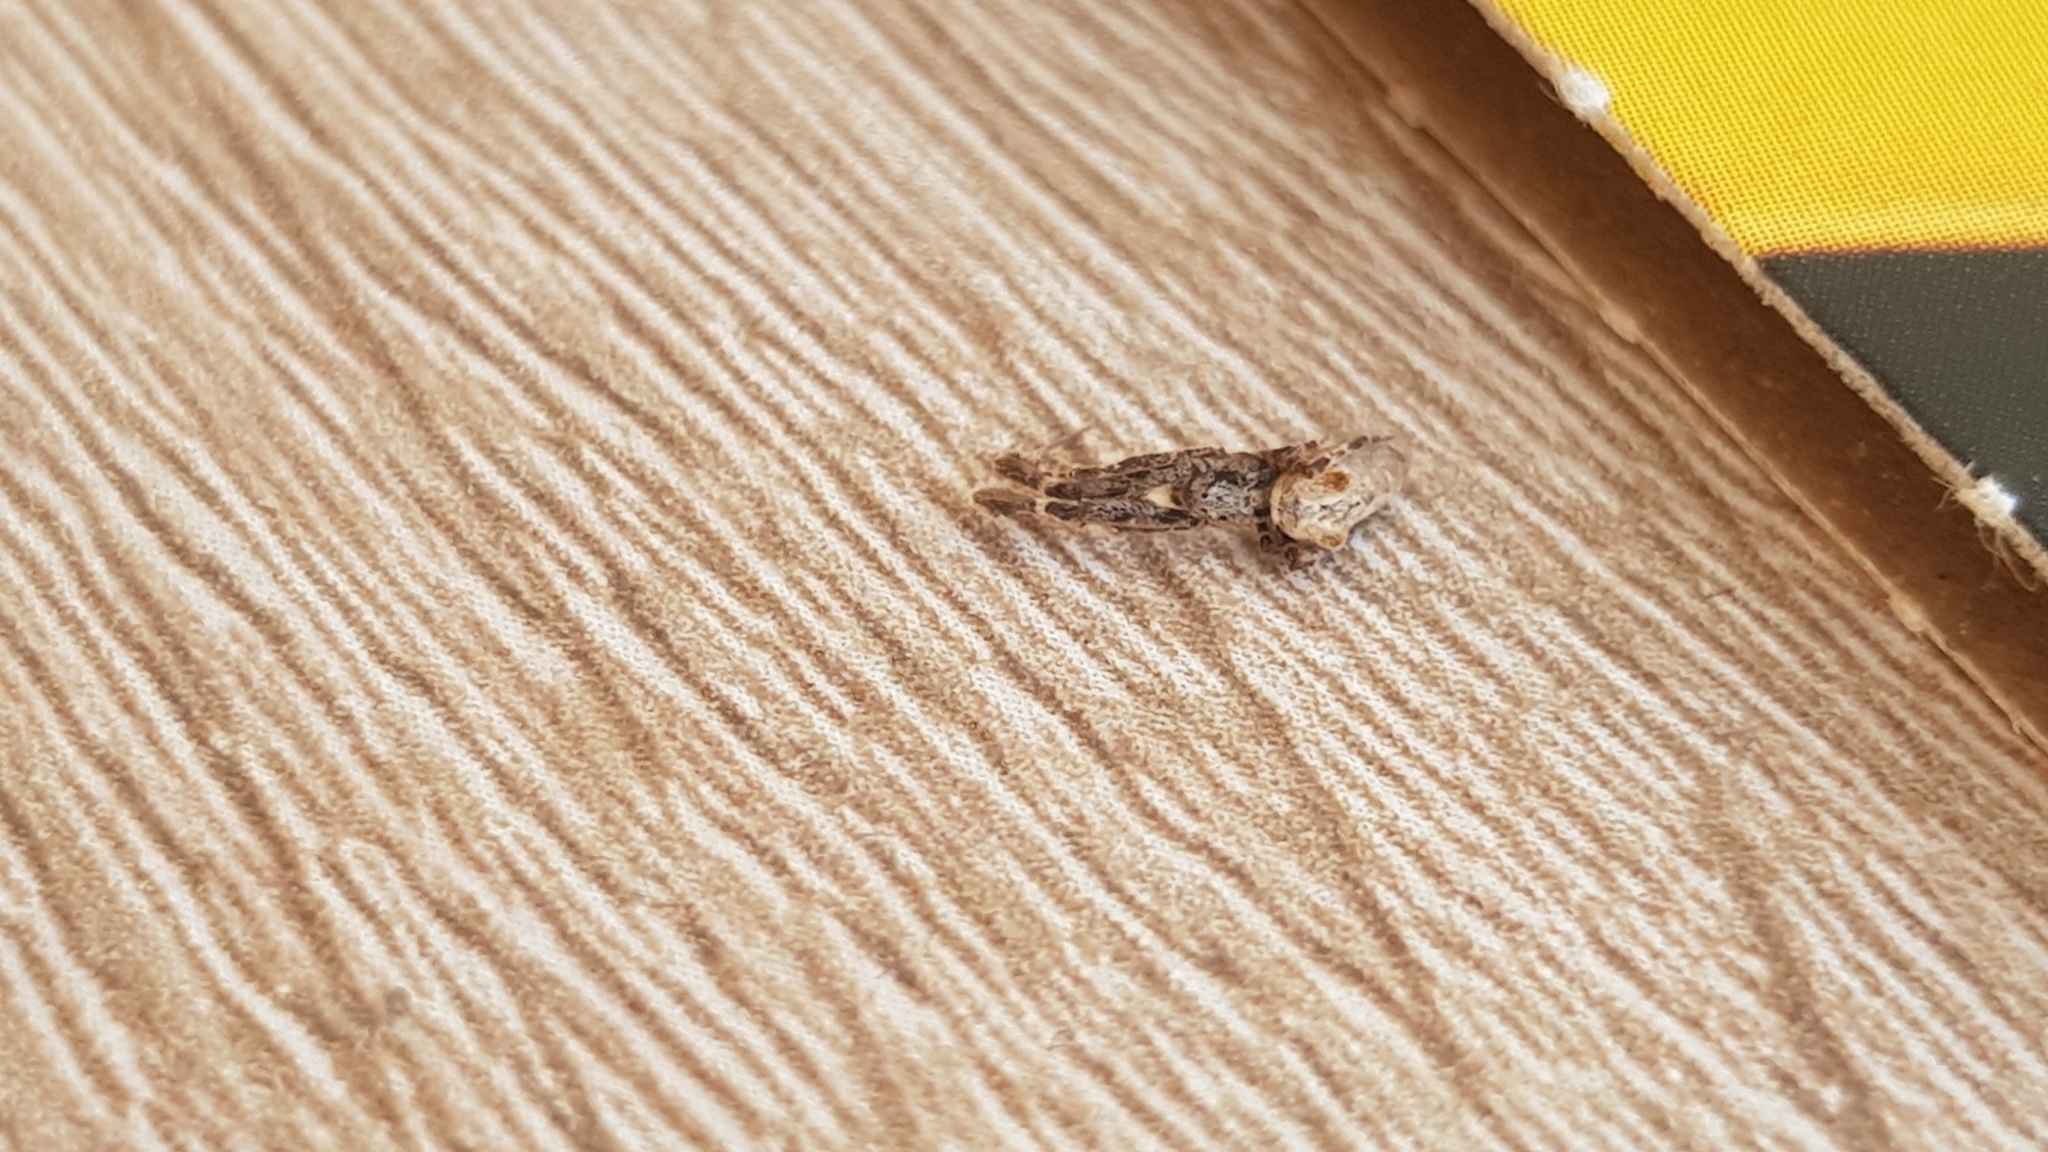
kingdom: Animalia
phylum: Arthropoda
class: Arachnida
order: Araneae
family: Uloboridae
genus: Uloborus
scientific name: Uloborus plumipes
